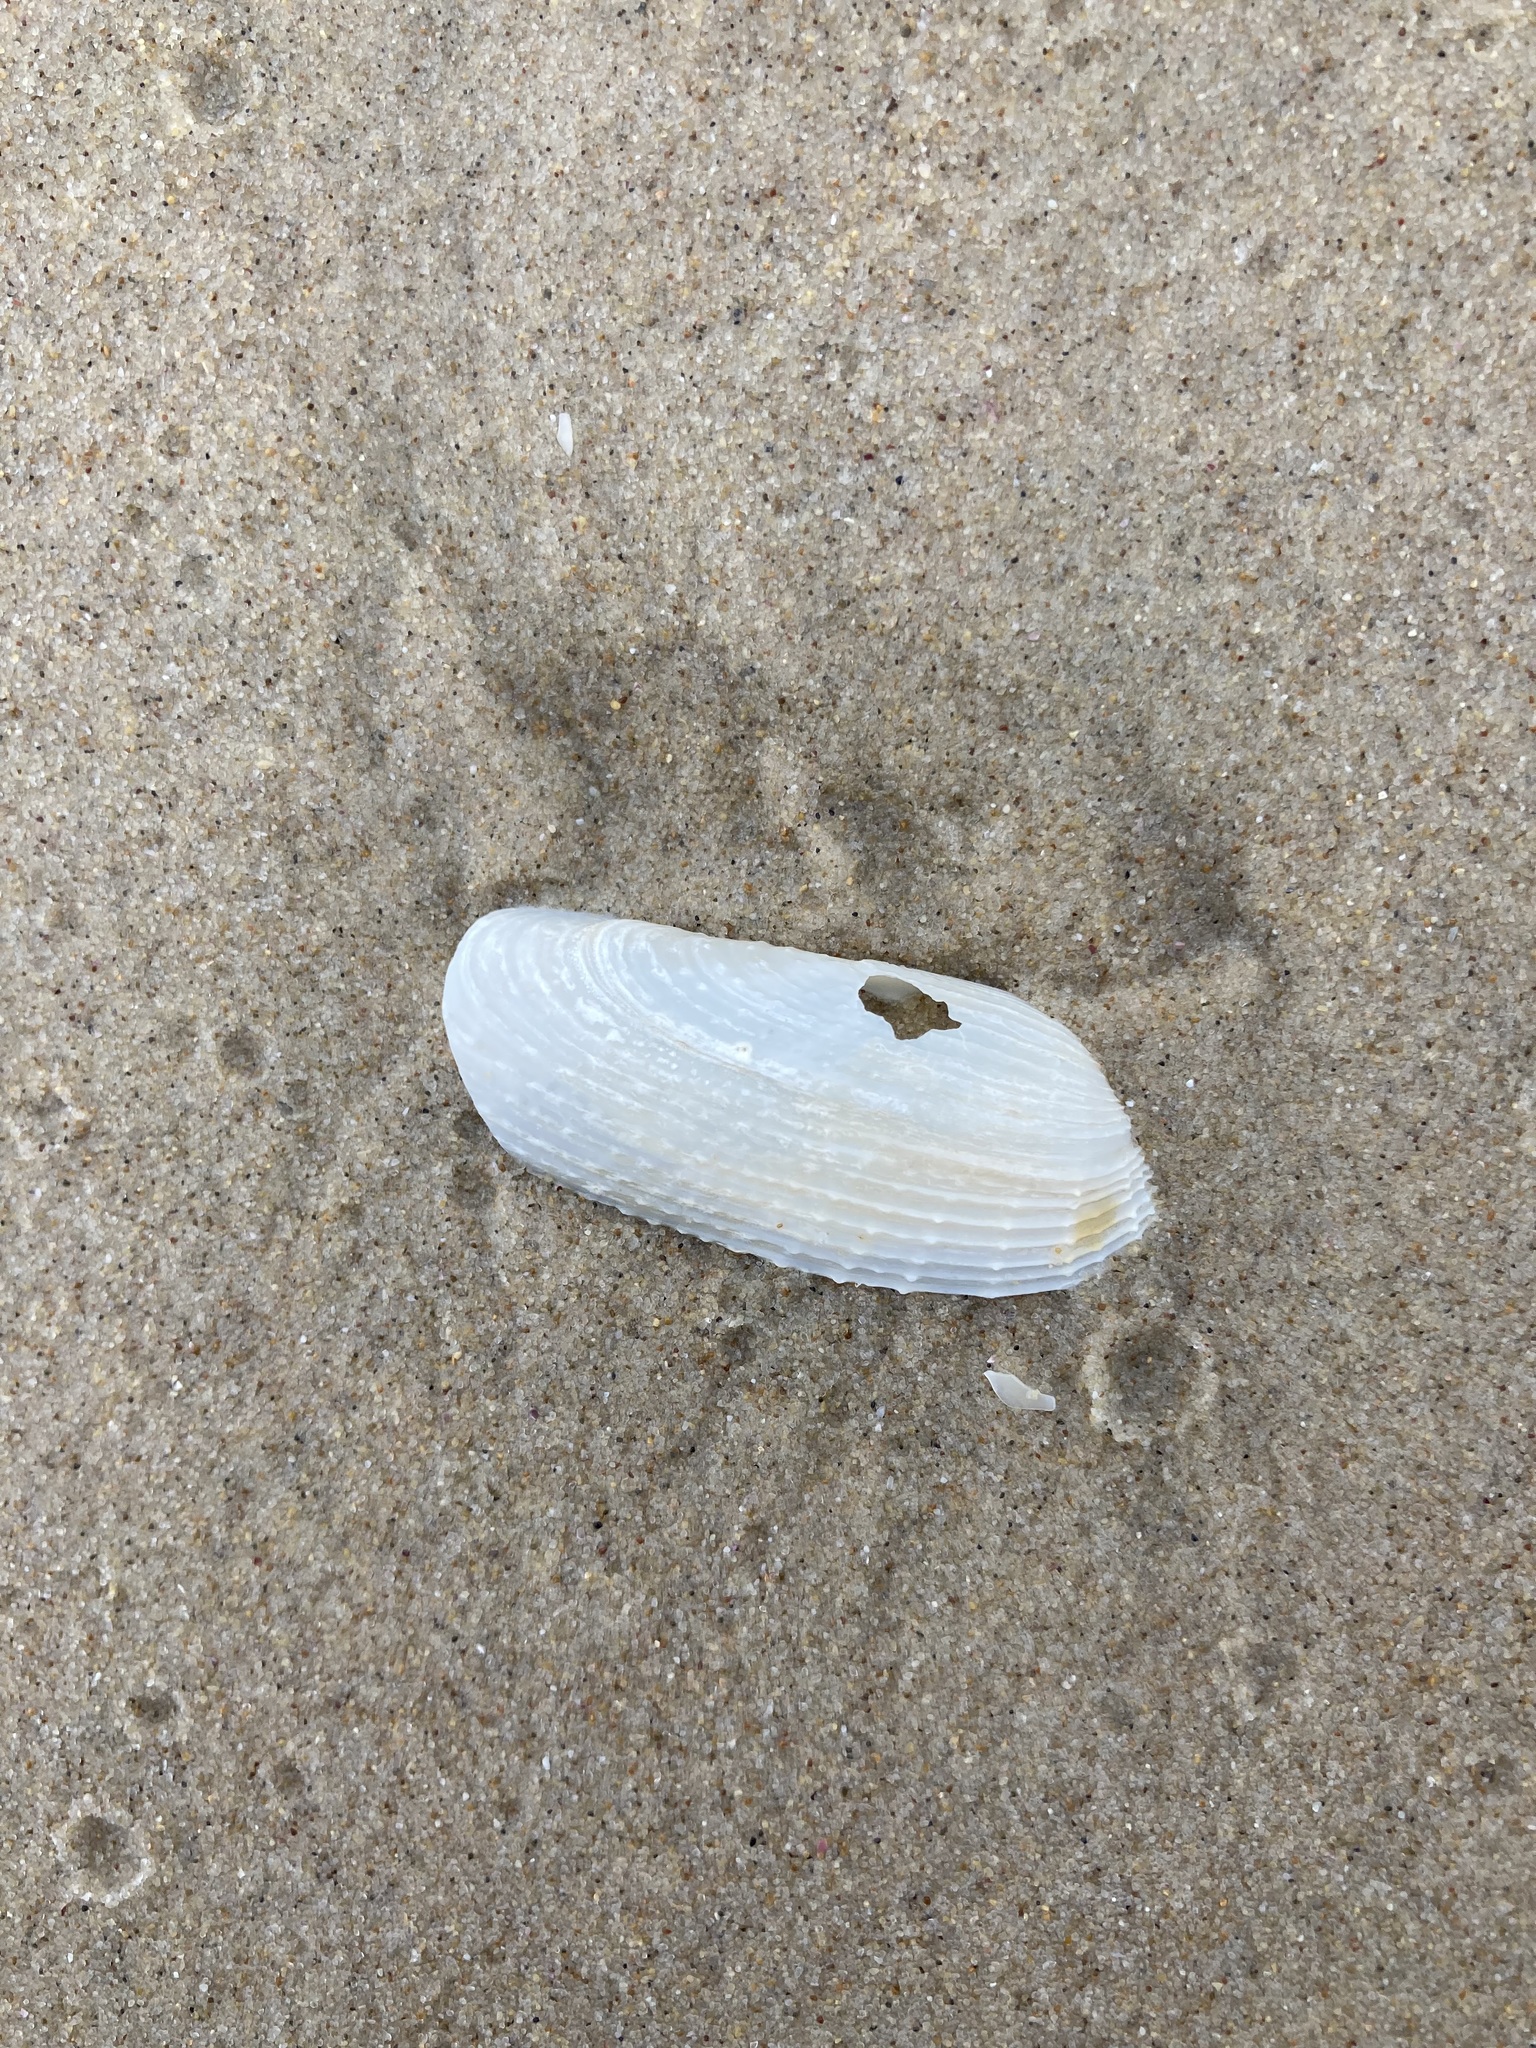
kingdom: Animalia
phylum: Mollusca
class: Bivalvia
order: Myida
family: Pholadidae
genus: Barnea
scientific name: Barnea australasiae
